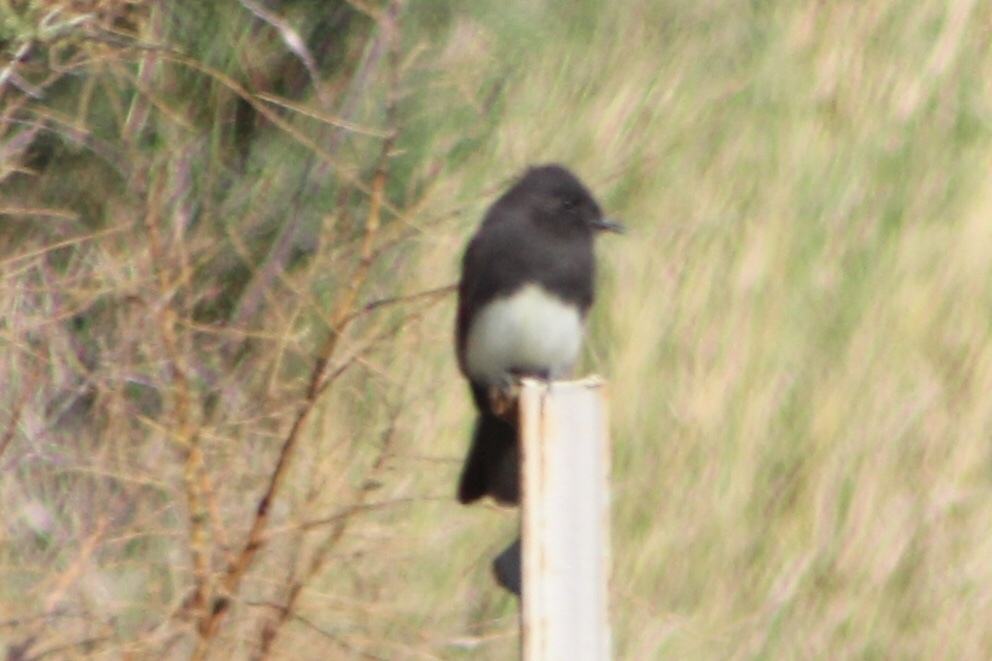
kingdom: Animalia
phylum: Chordata
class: Aves
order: Passeriformes
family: Tyrannidae
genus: Sayornis
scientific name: Sayornis nigricans
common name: Black phoebe
